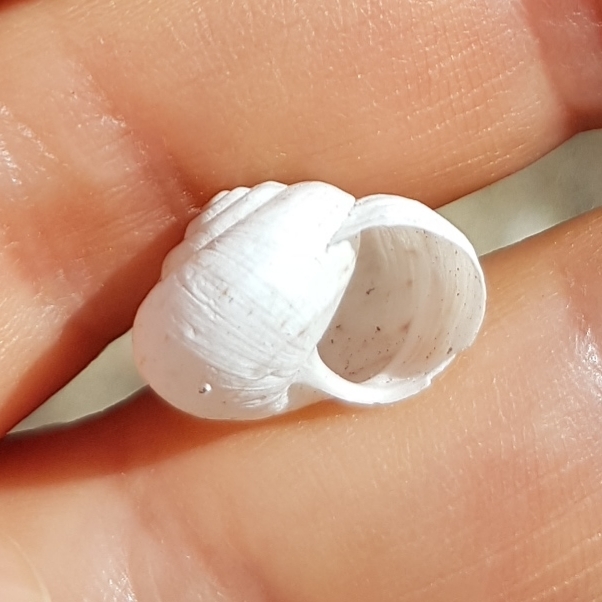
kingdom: Animalia
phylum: Mollusca
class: Gastropoda
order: Stylommatophora
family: Helicidae
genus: Theba
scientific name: Theba pisana
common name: White snail
